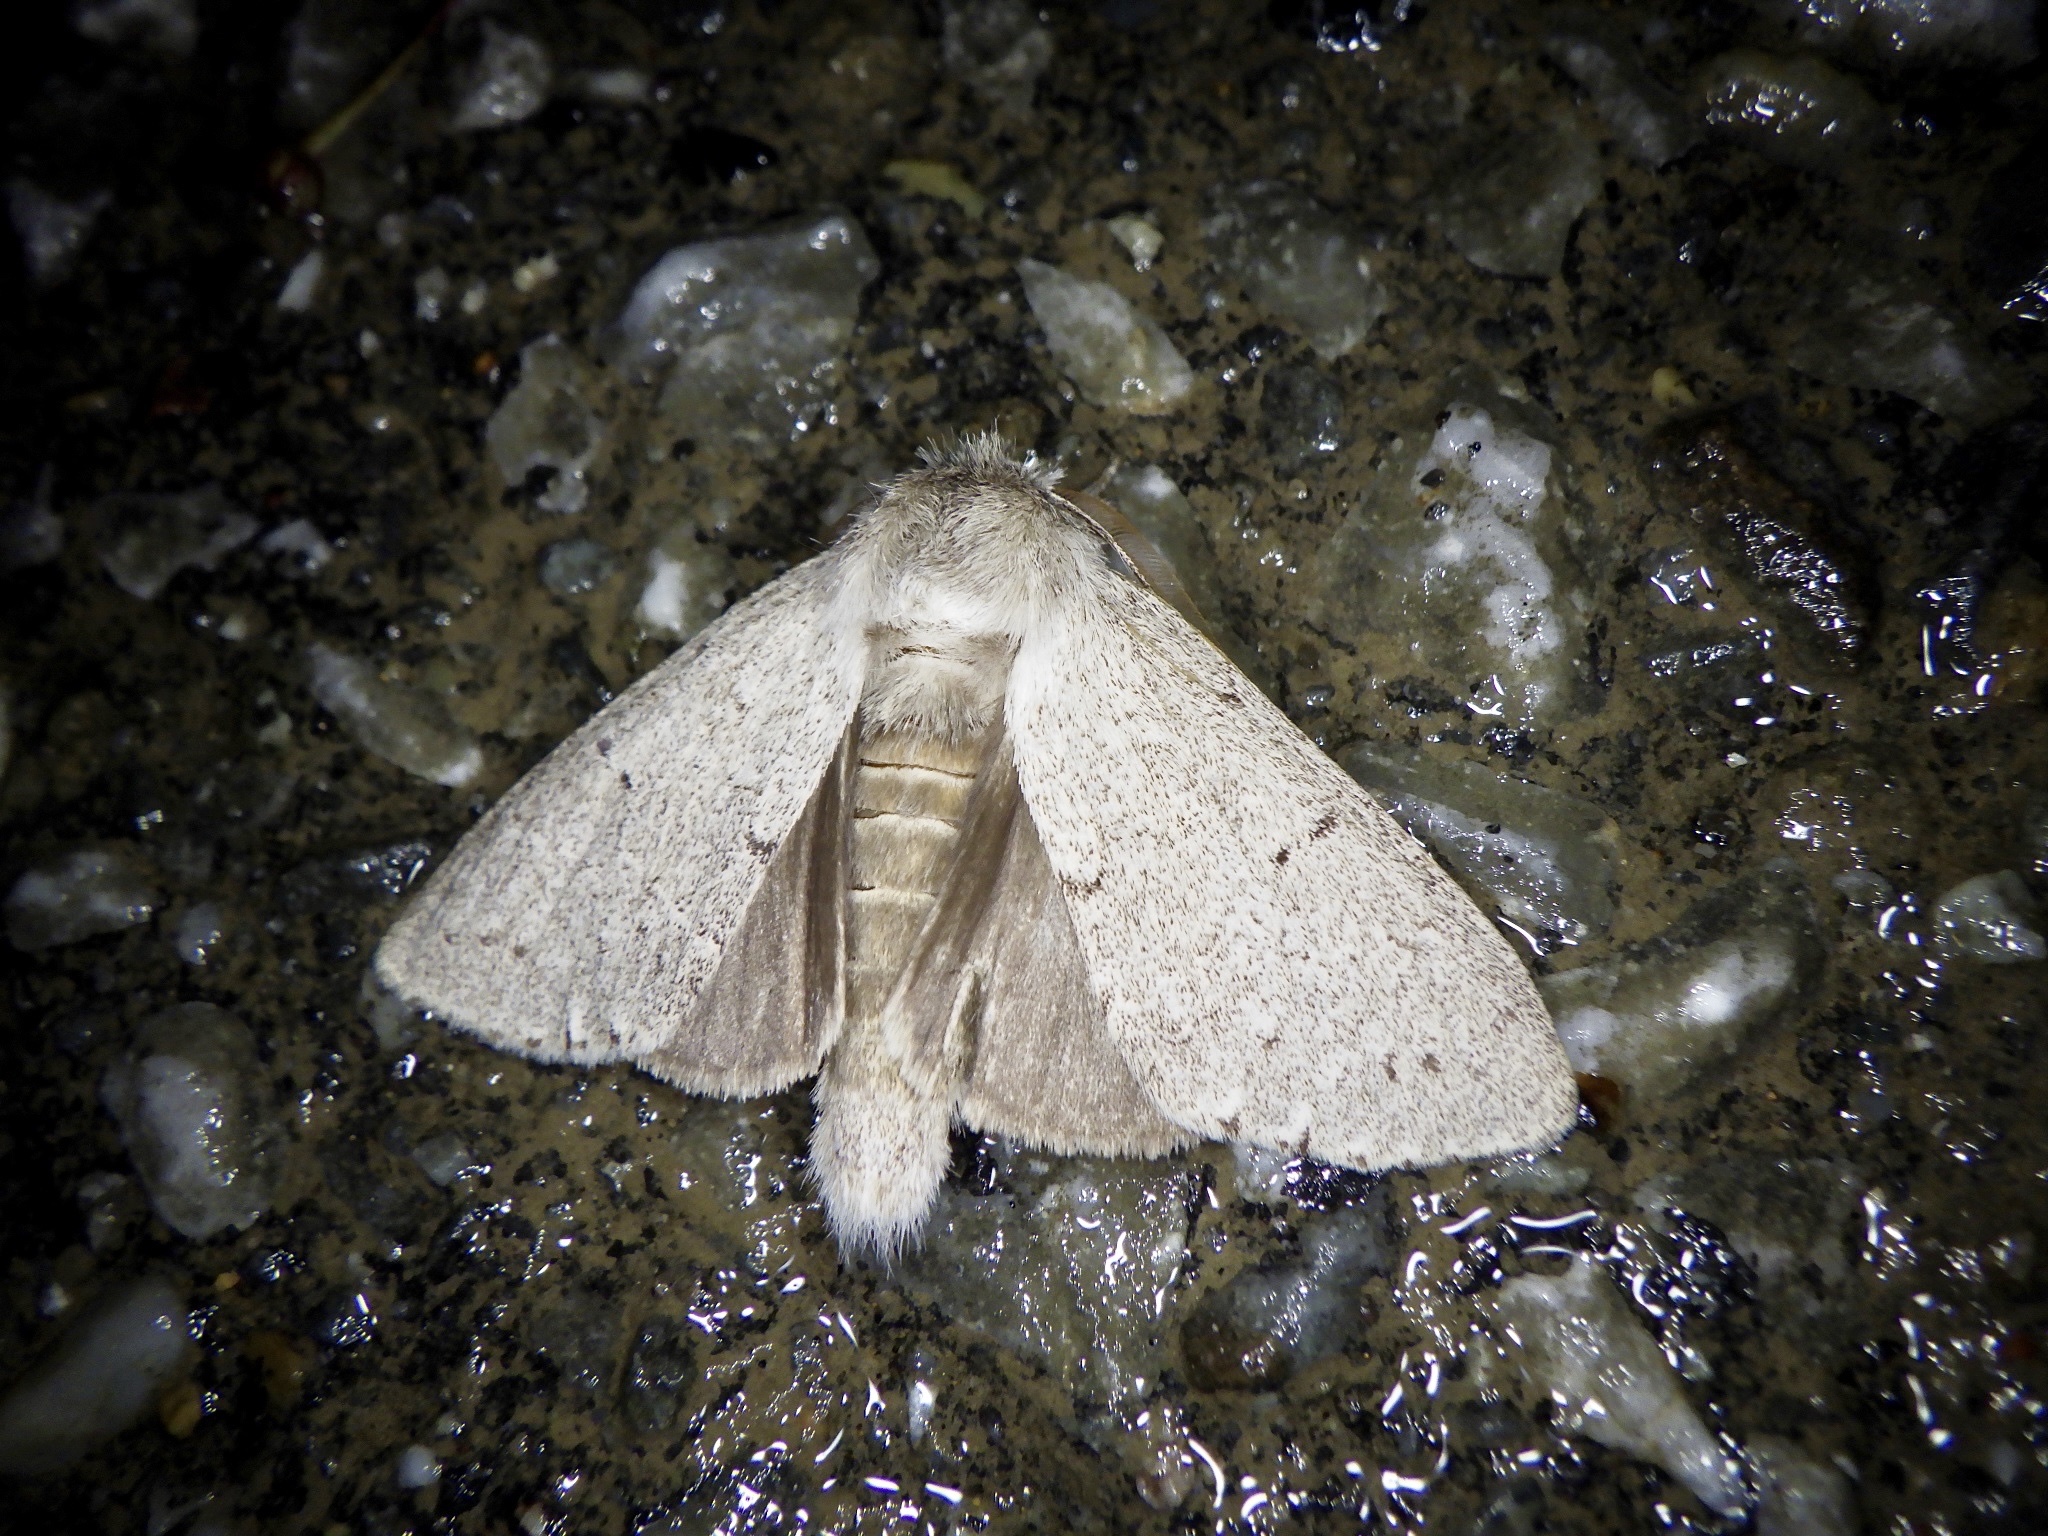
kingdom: Animalia
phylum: Arthropoda
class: Insecta
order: Lepidoptera
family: Notodontidae
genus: Cnethodonta
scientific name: Cnethodonta grisescens
